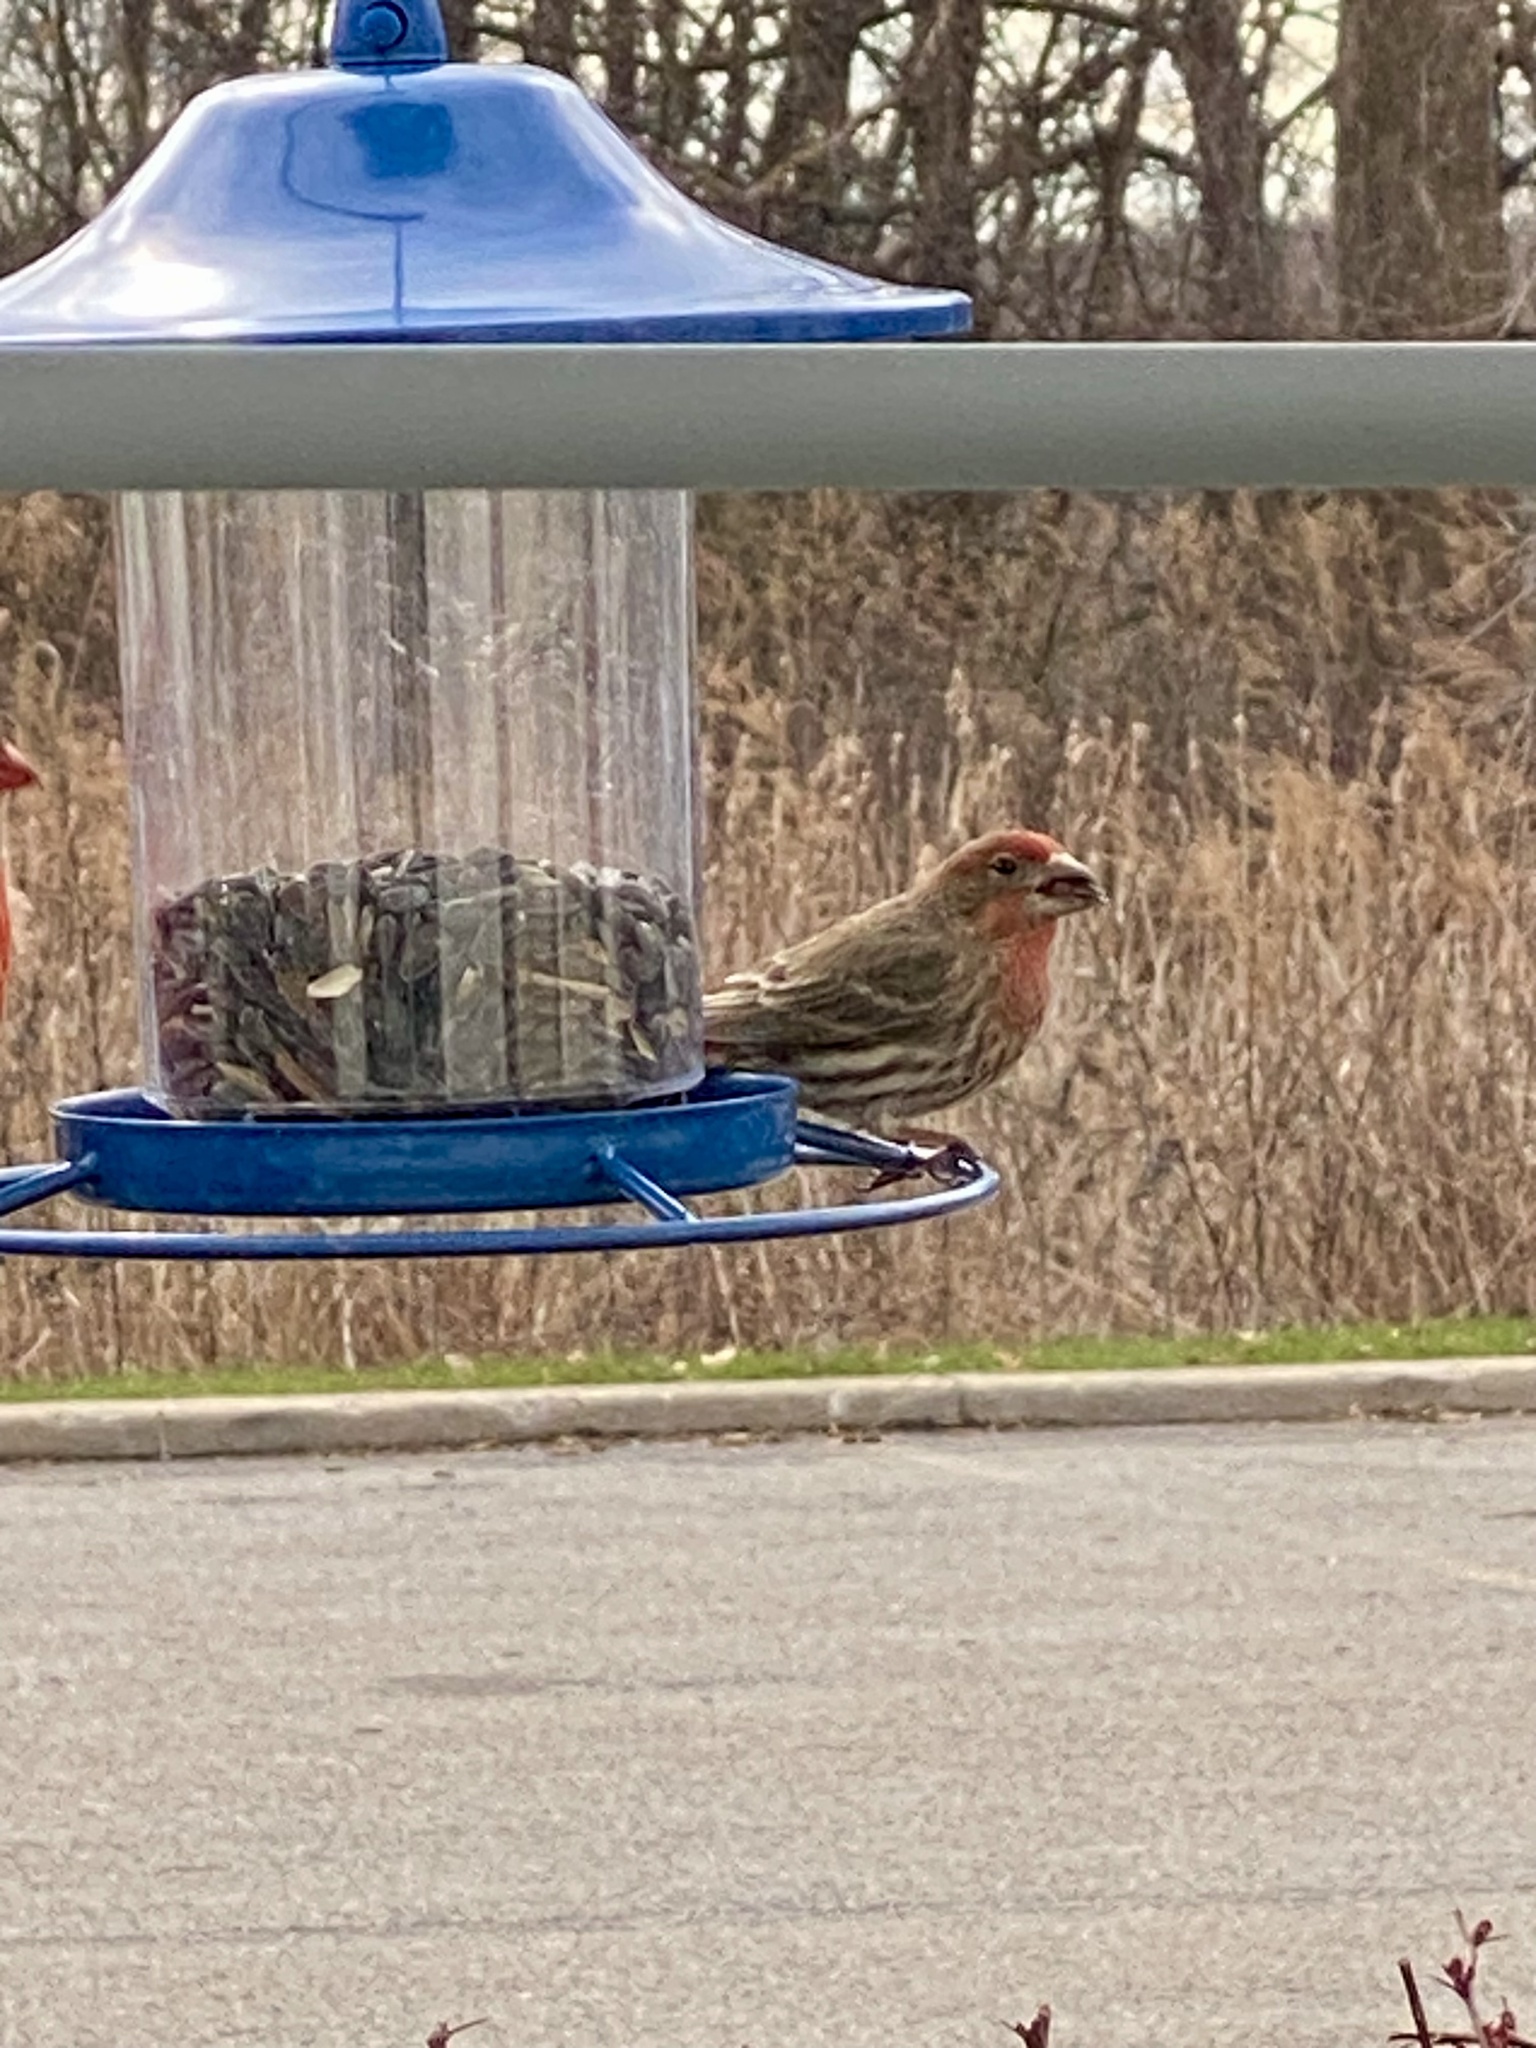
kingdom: Animalia
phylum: Chordata
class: Aves
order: Passeriformes
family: Fringillidae
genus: Haemorhous
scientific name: Haemorhous mexicanus
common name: House finch
